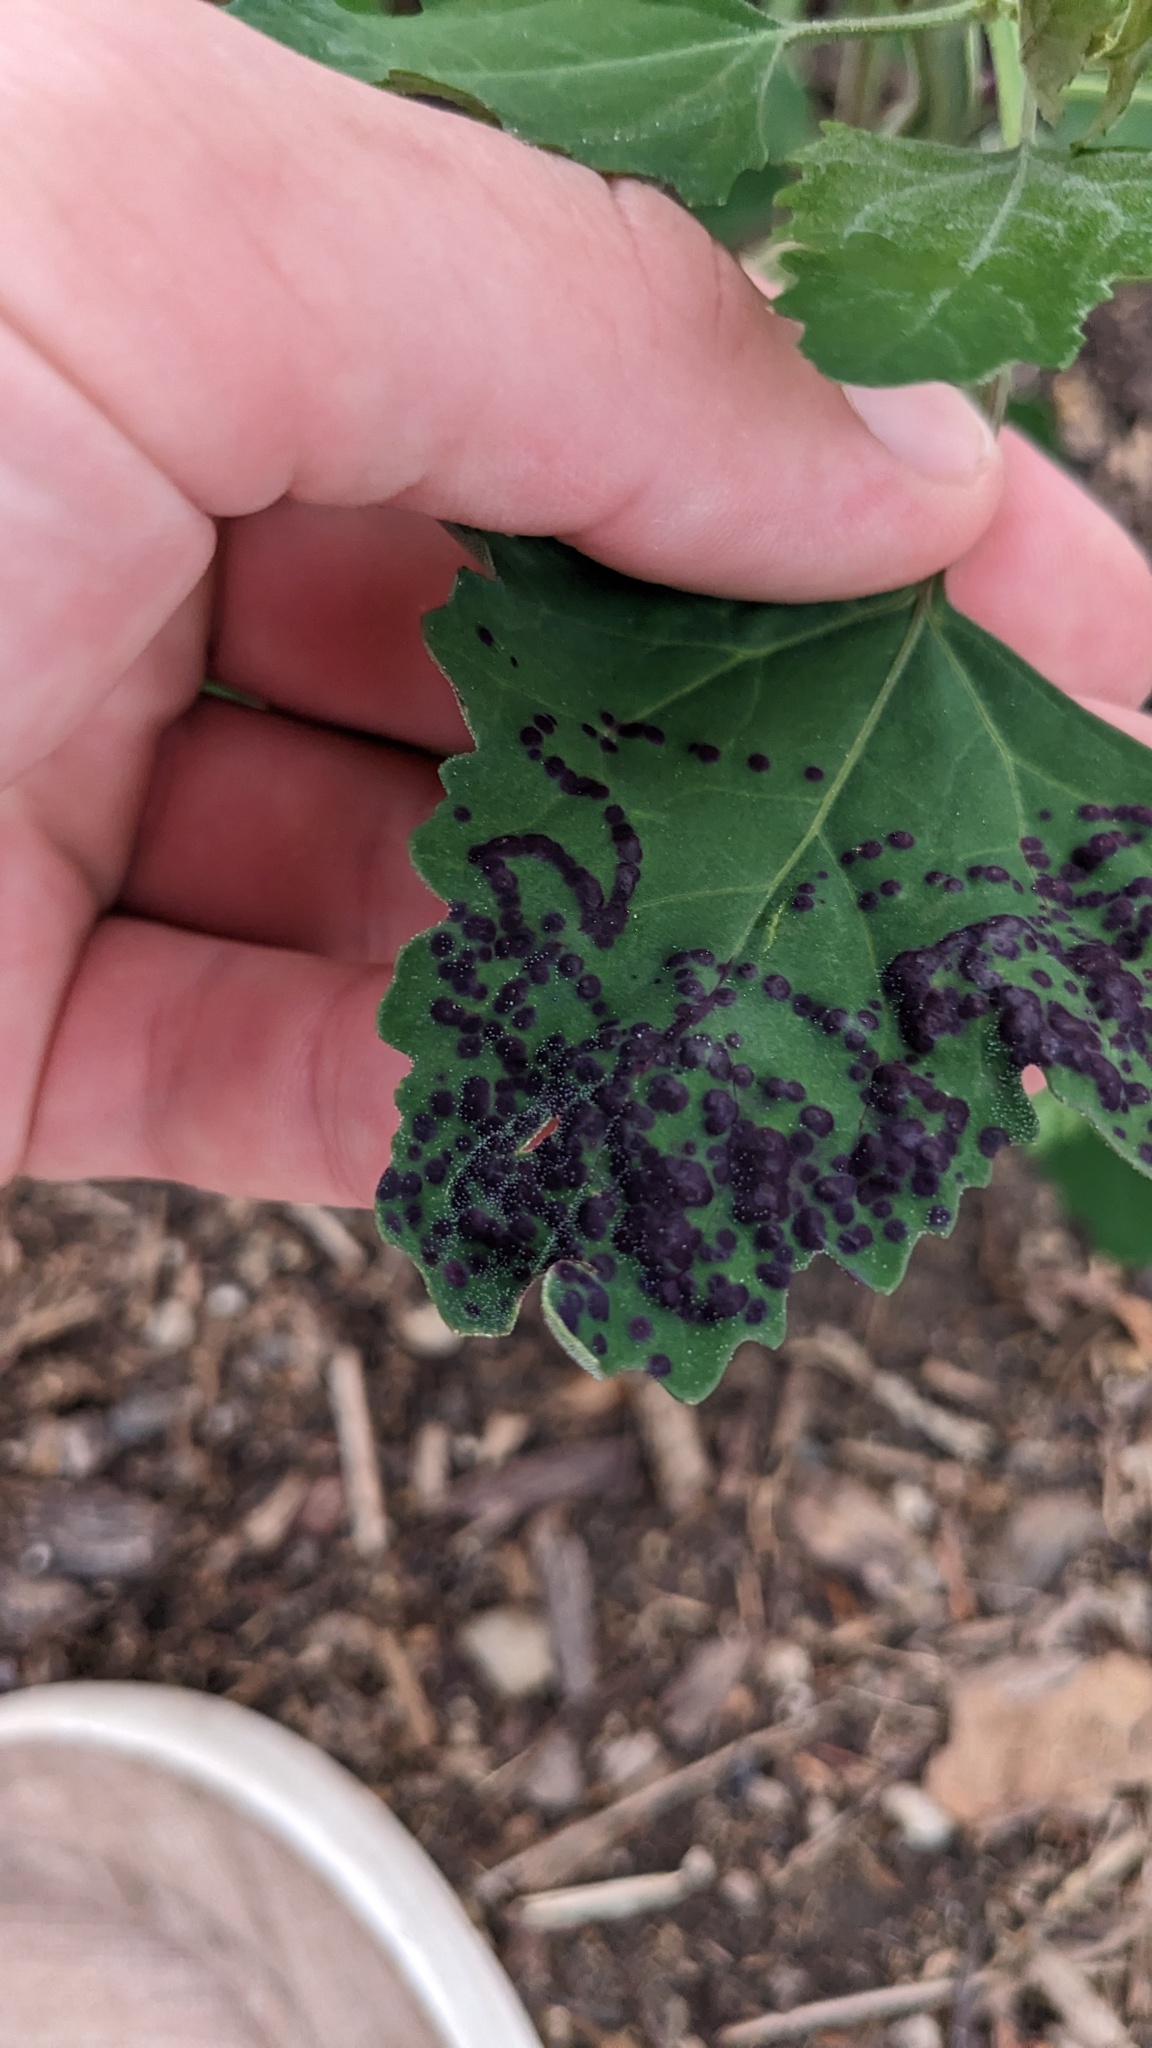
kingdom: Animalia
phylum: Arthropoda
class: Insecta
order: Hemiptera
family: Cicadellidae
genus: Norvellina
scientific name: Norvellina chenopodii
